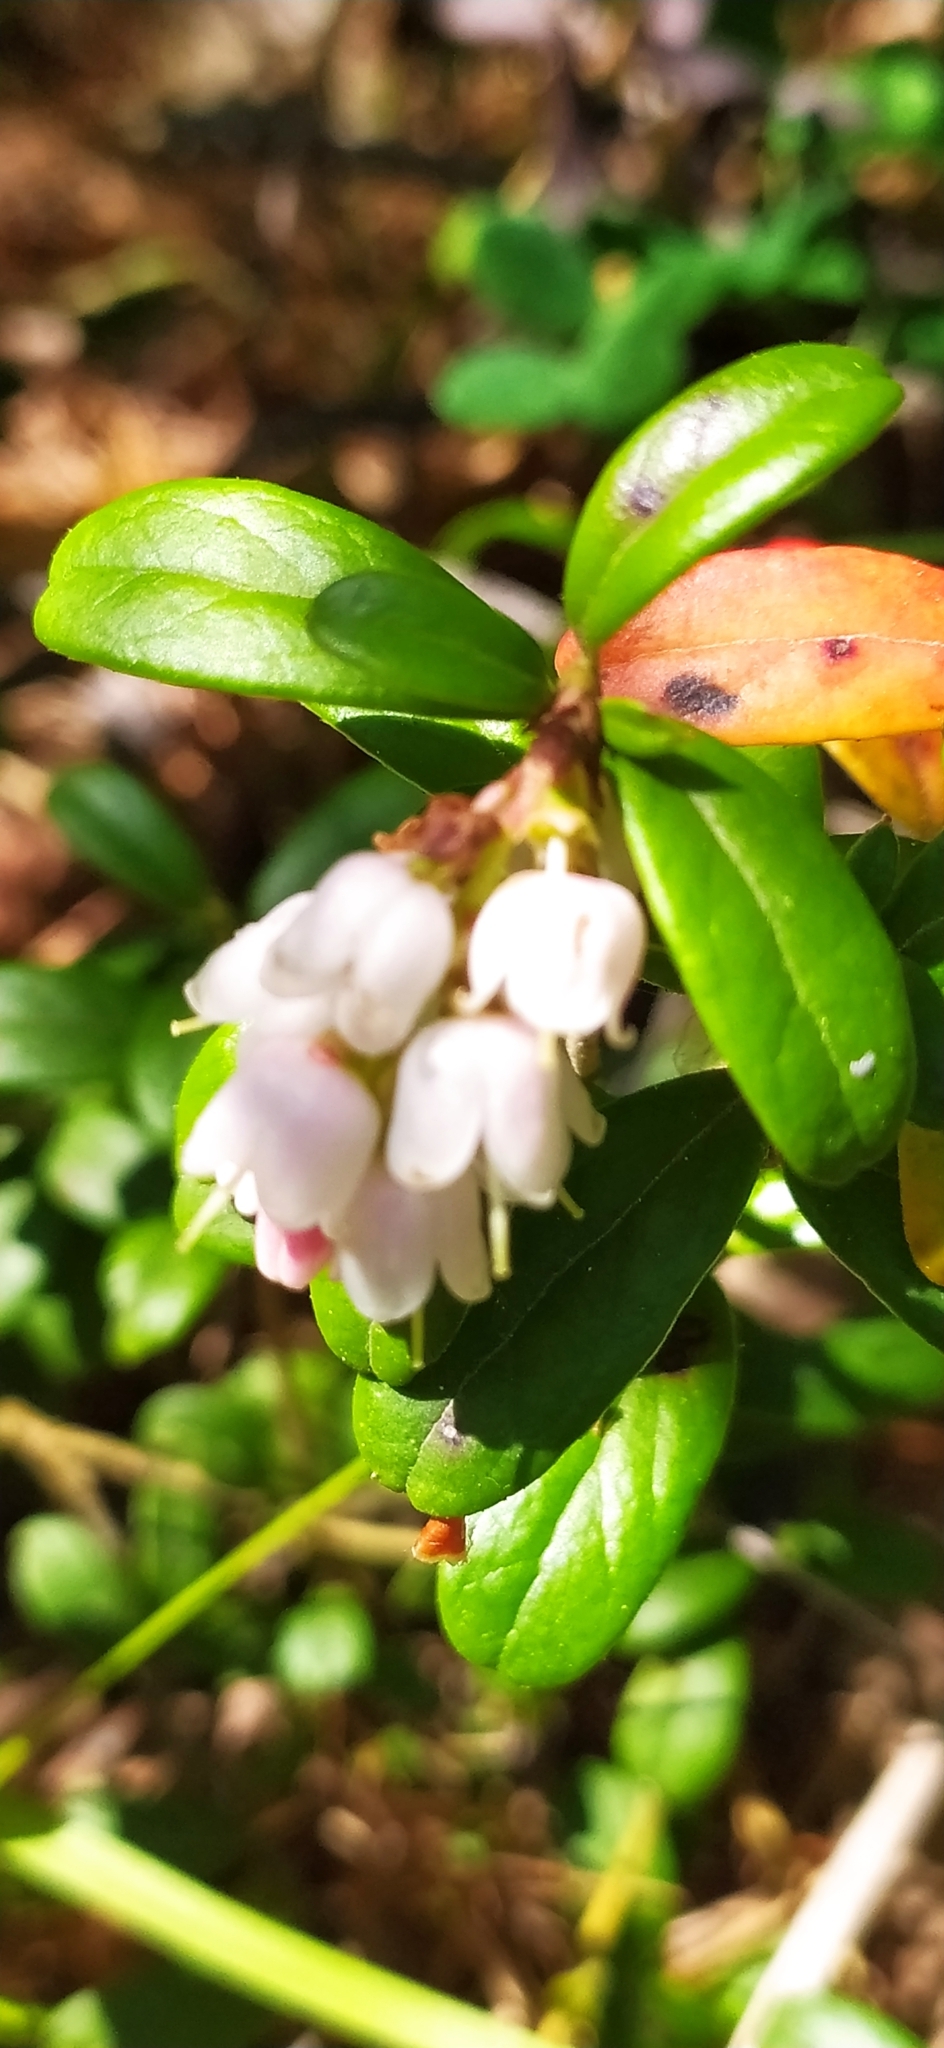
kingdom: Plantae
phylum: Tracheophyta
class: Magnoliopsida
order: Ericales
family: Ericaceae
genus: Vaccinium
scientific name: Vaccinium vitis-idaea
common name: Cowberry
